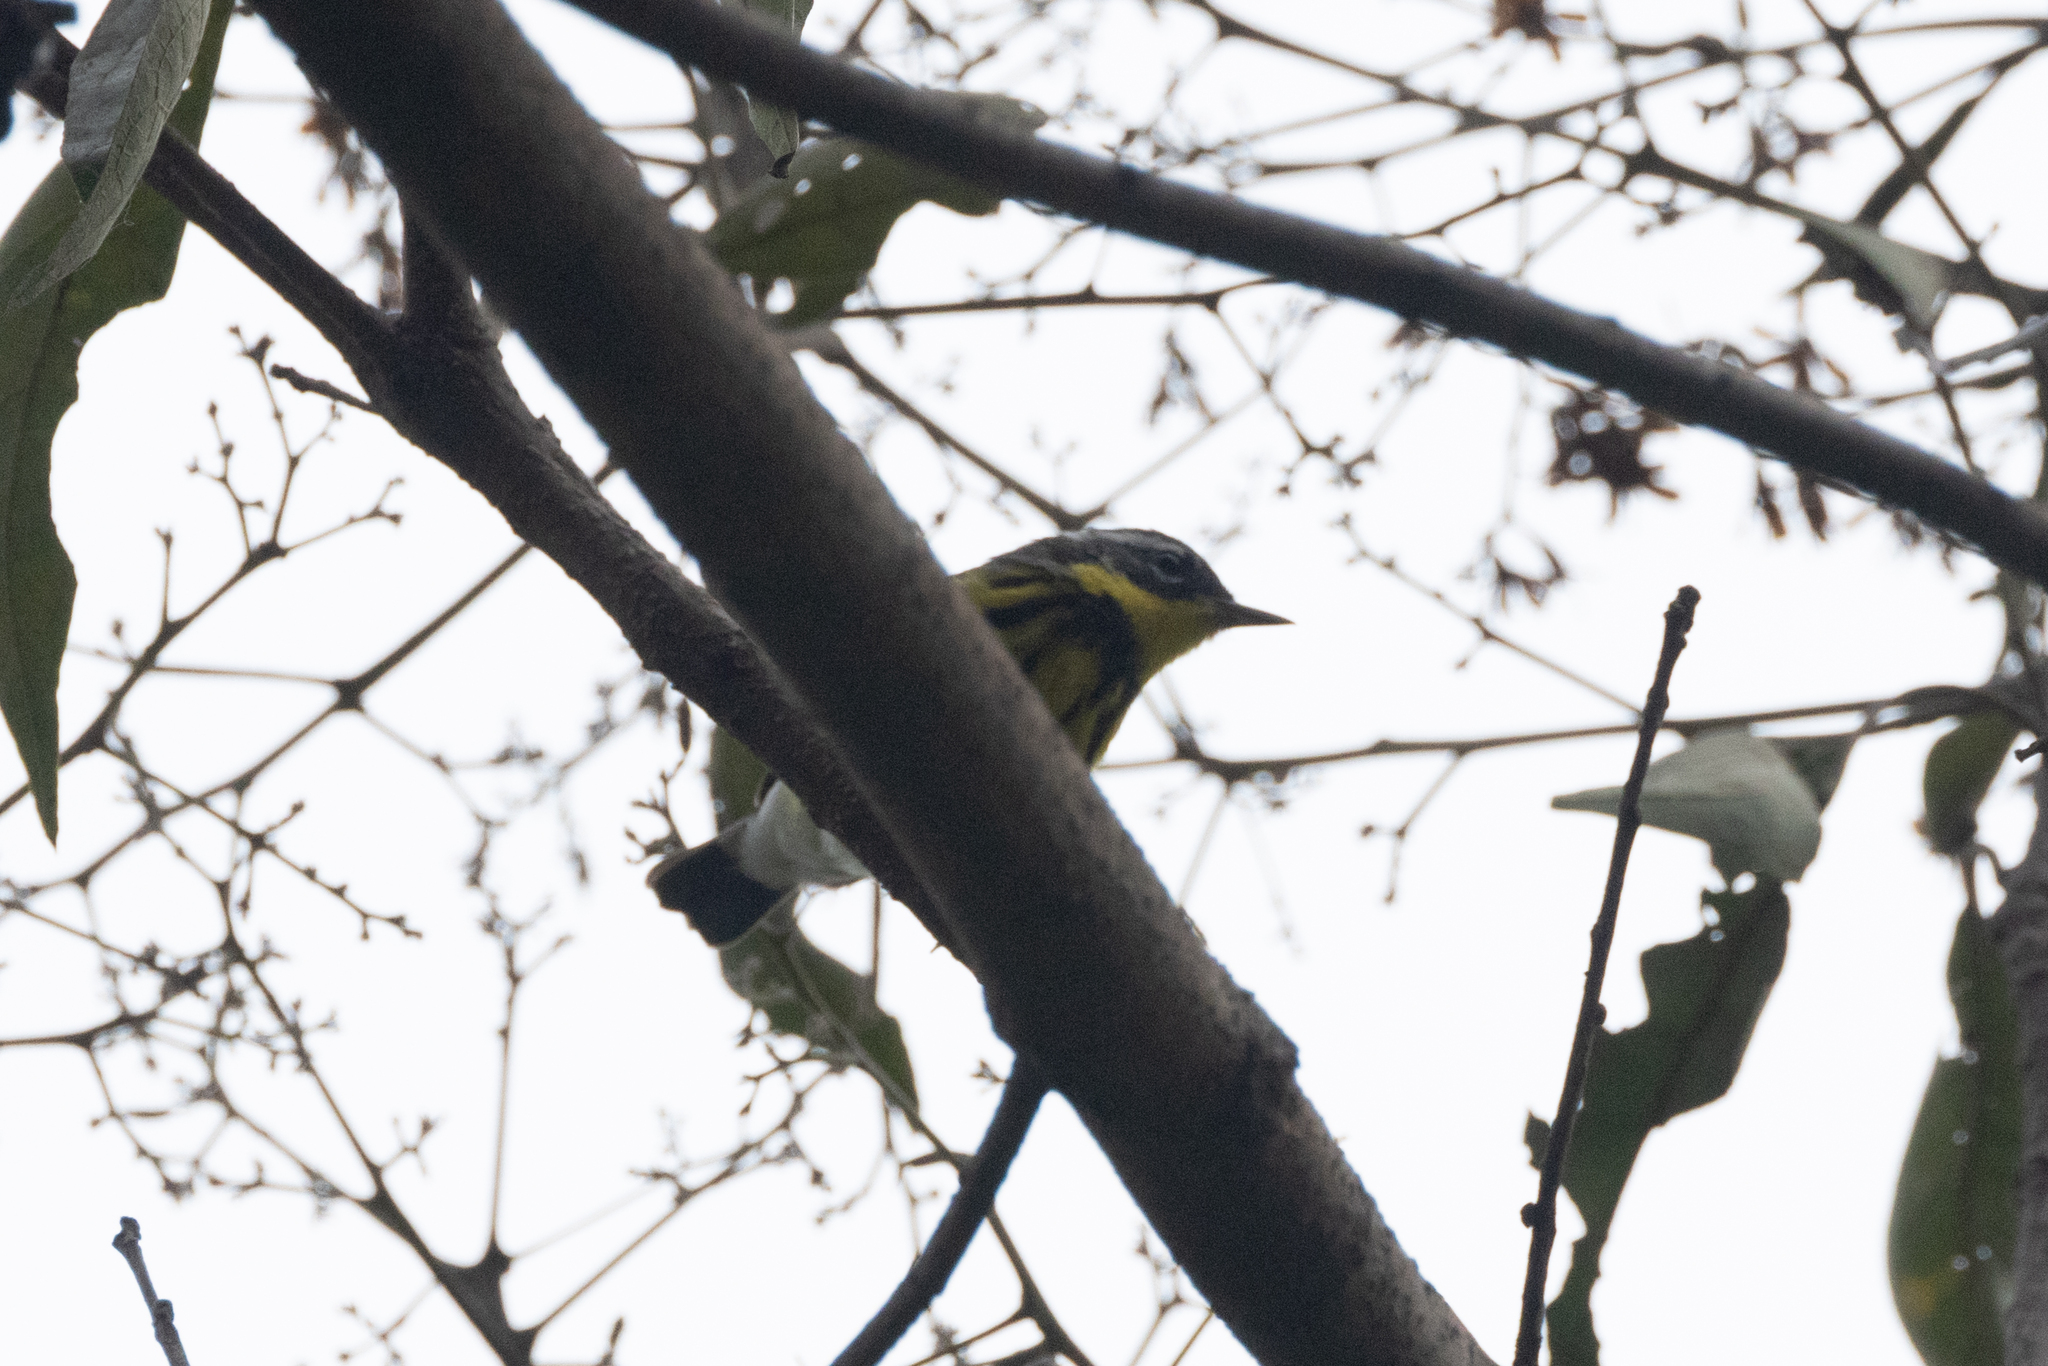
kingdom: Animalia
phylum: Chordata
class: Aves
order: Passeriformes
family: Parulidae
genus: Setophaga
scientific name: Setophaga magnolia
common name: Magnolia warbler
